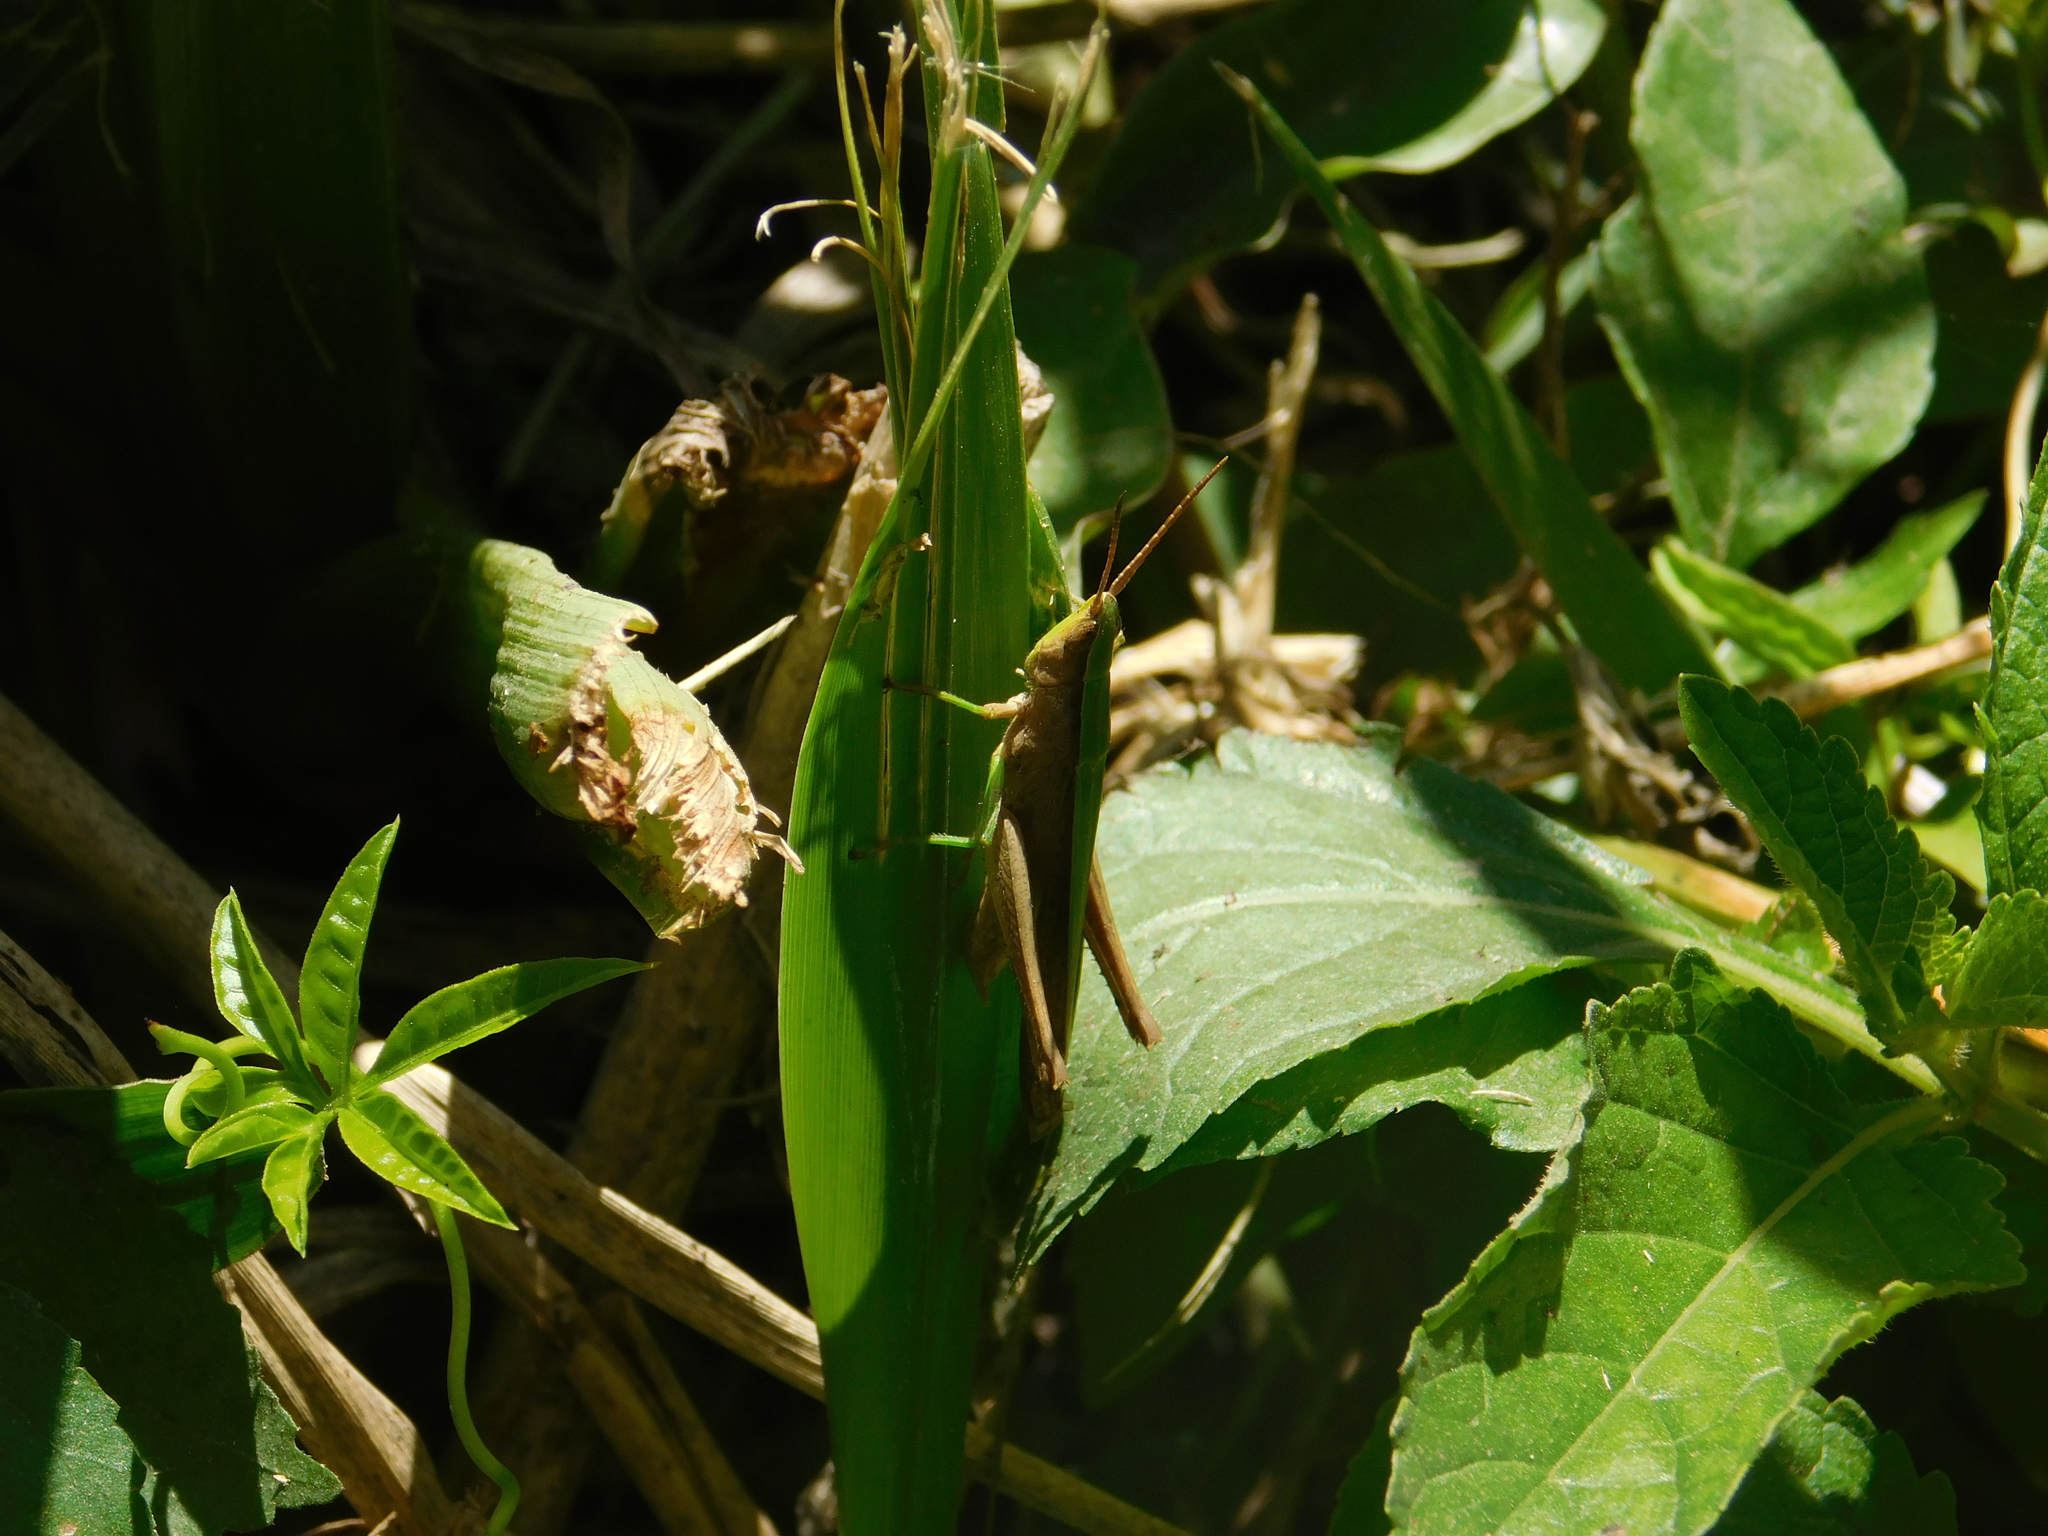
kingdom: Animalia
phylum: Arthropoda
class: Insecta
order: Orthoptera
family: Acrididae
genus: Metaleptea
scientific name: Metaleptea adspersa
